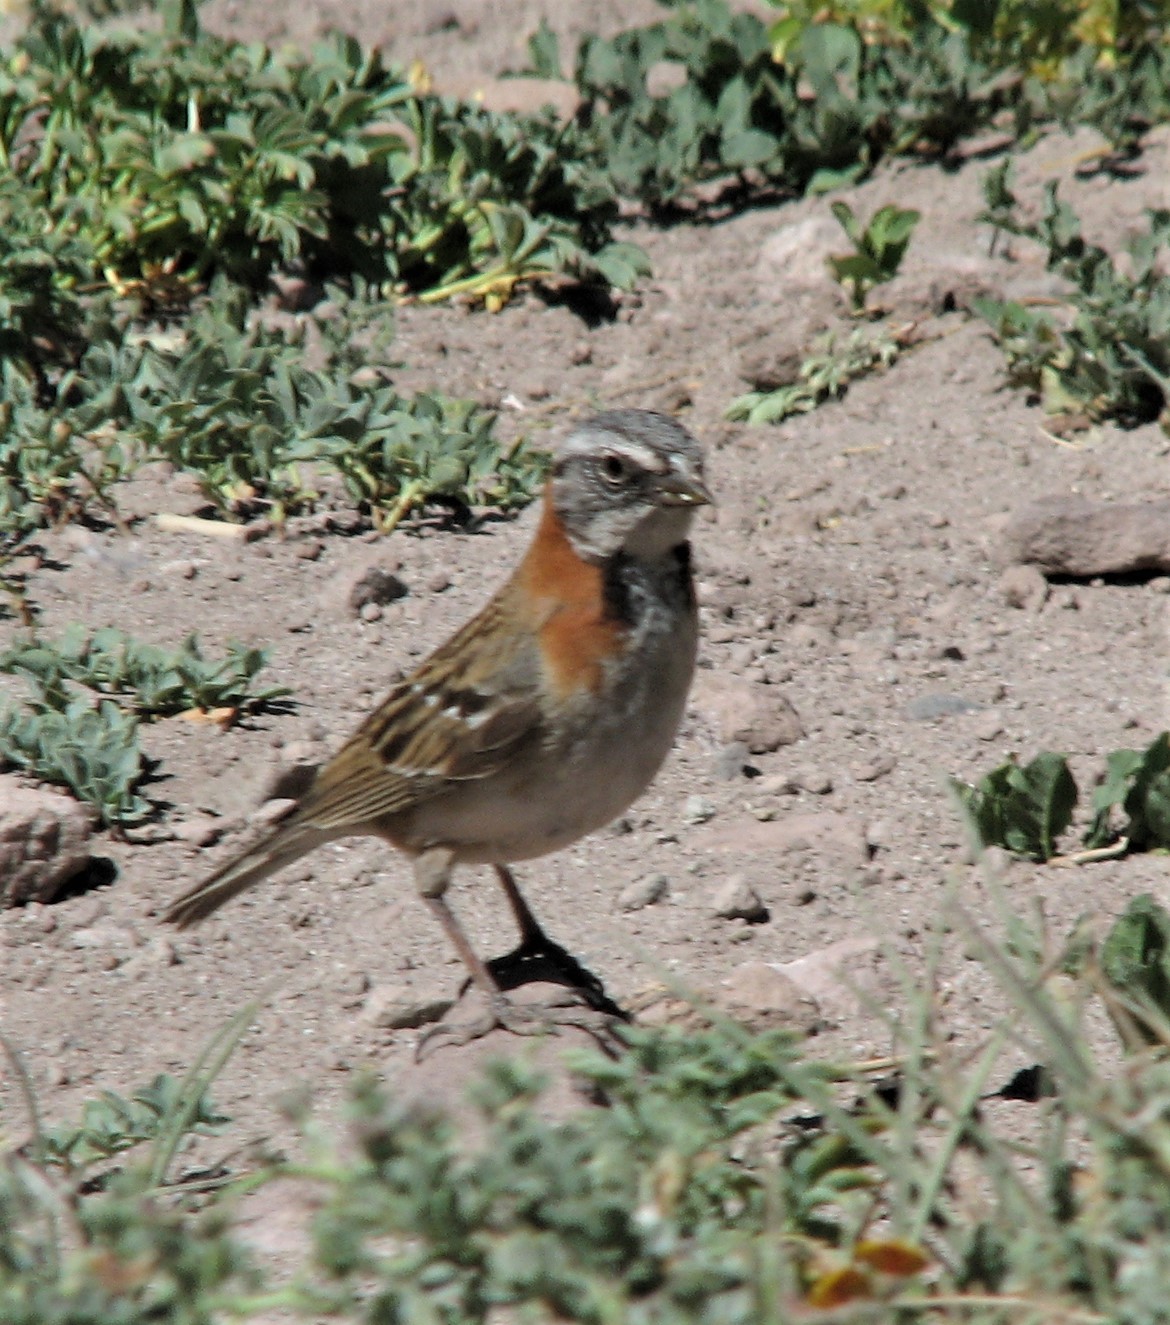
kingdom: Animalia
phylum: Chordata
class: Aves
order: Passeriformes
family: Passerellidae
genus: Zonotrichia
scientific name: Zonotrichia capensis
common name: Rufous-collared sparrow
